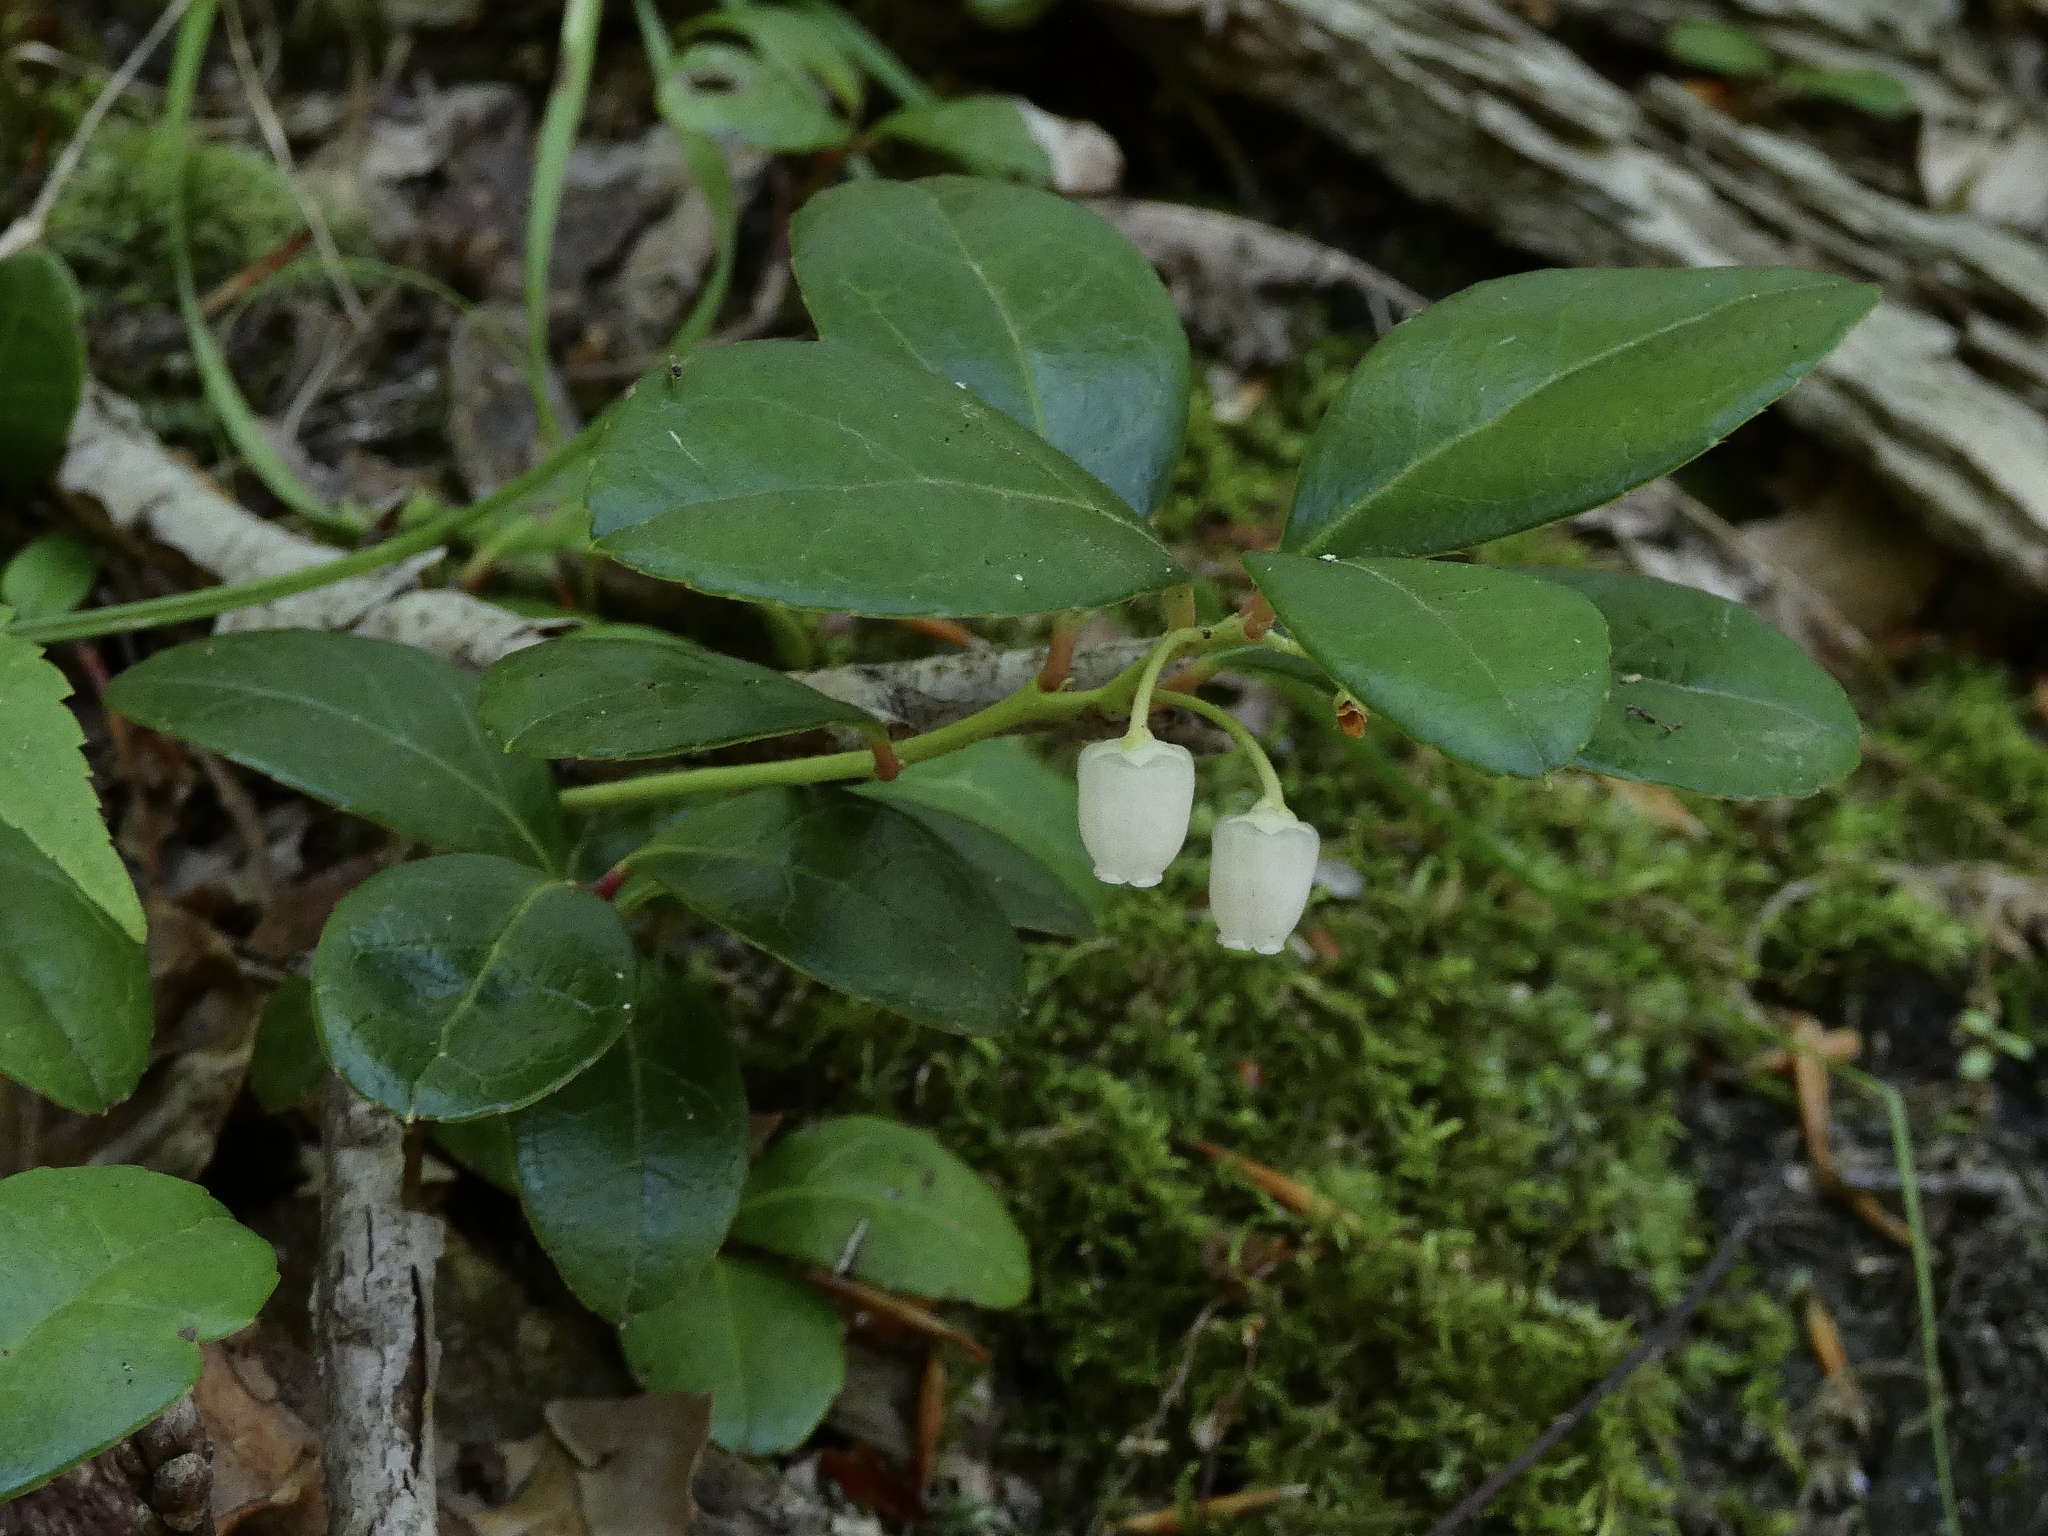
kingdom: Plantae
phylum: Tracheophyta
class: Magnoliopsida
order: Ericales
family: Ericaceae
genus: Gaultheria
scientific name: Gaultheria procumbens
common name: Checkerberry
